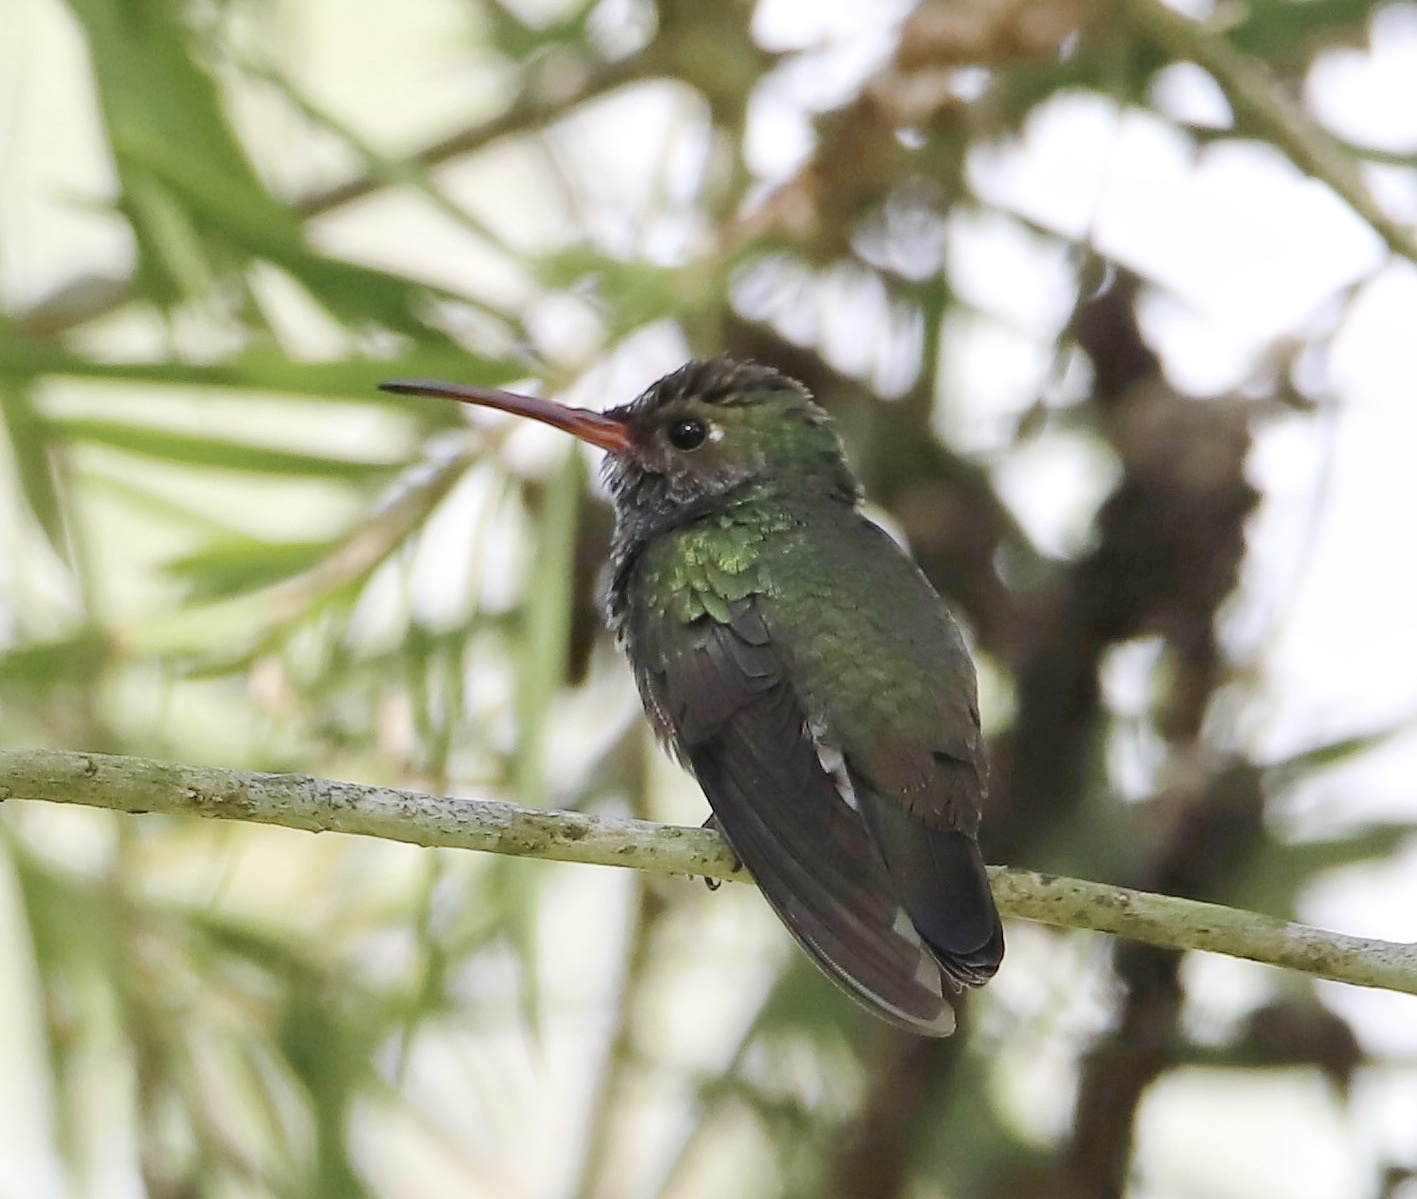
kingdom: Animalia
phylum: Chordata
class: Aves
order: Apodiformes
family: Trochilidae
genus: Chionomesa
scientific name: Chionomesa fimbriata
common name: Glittering-throated emerald
